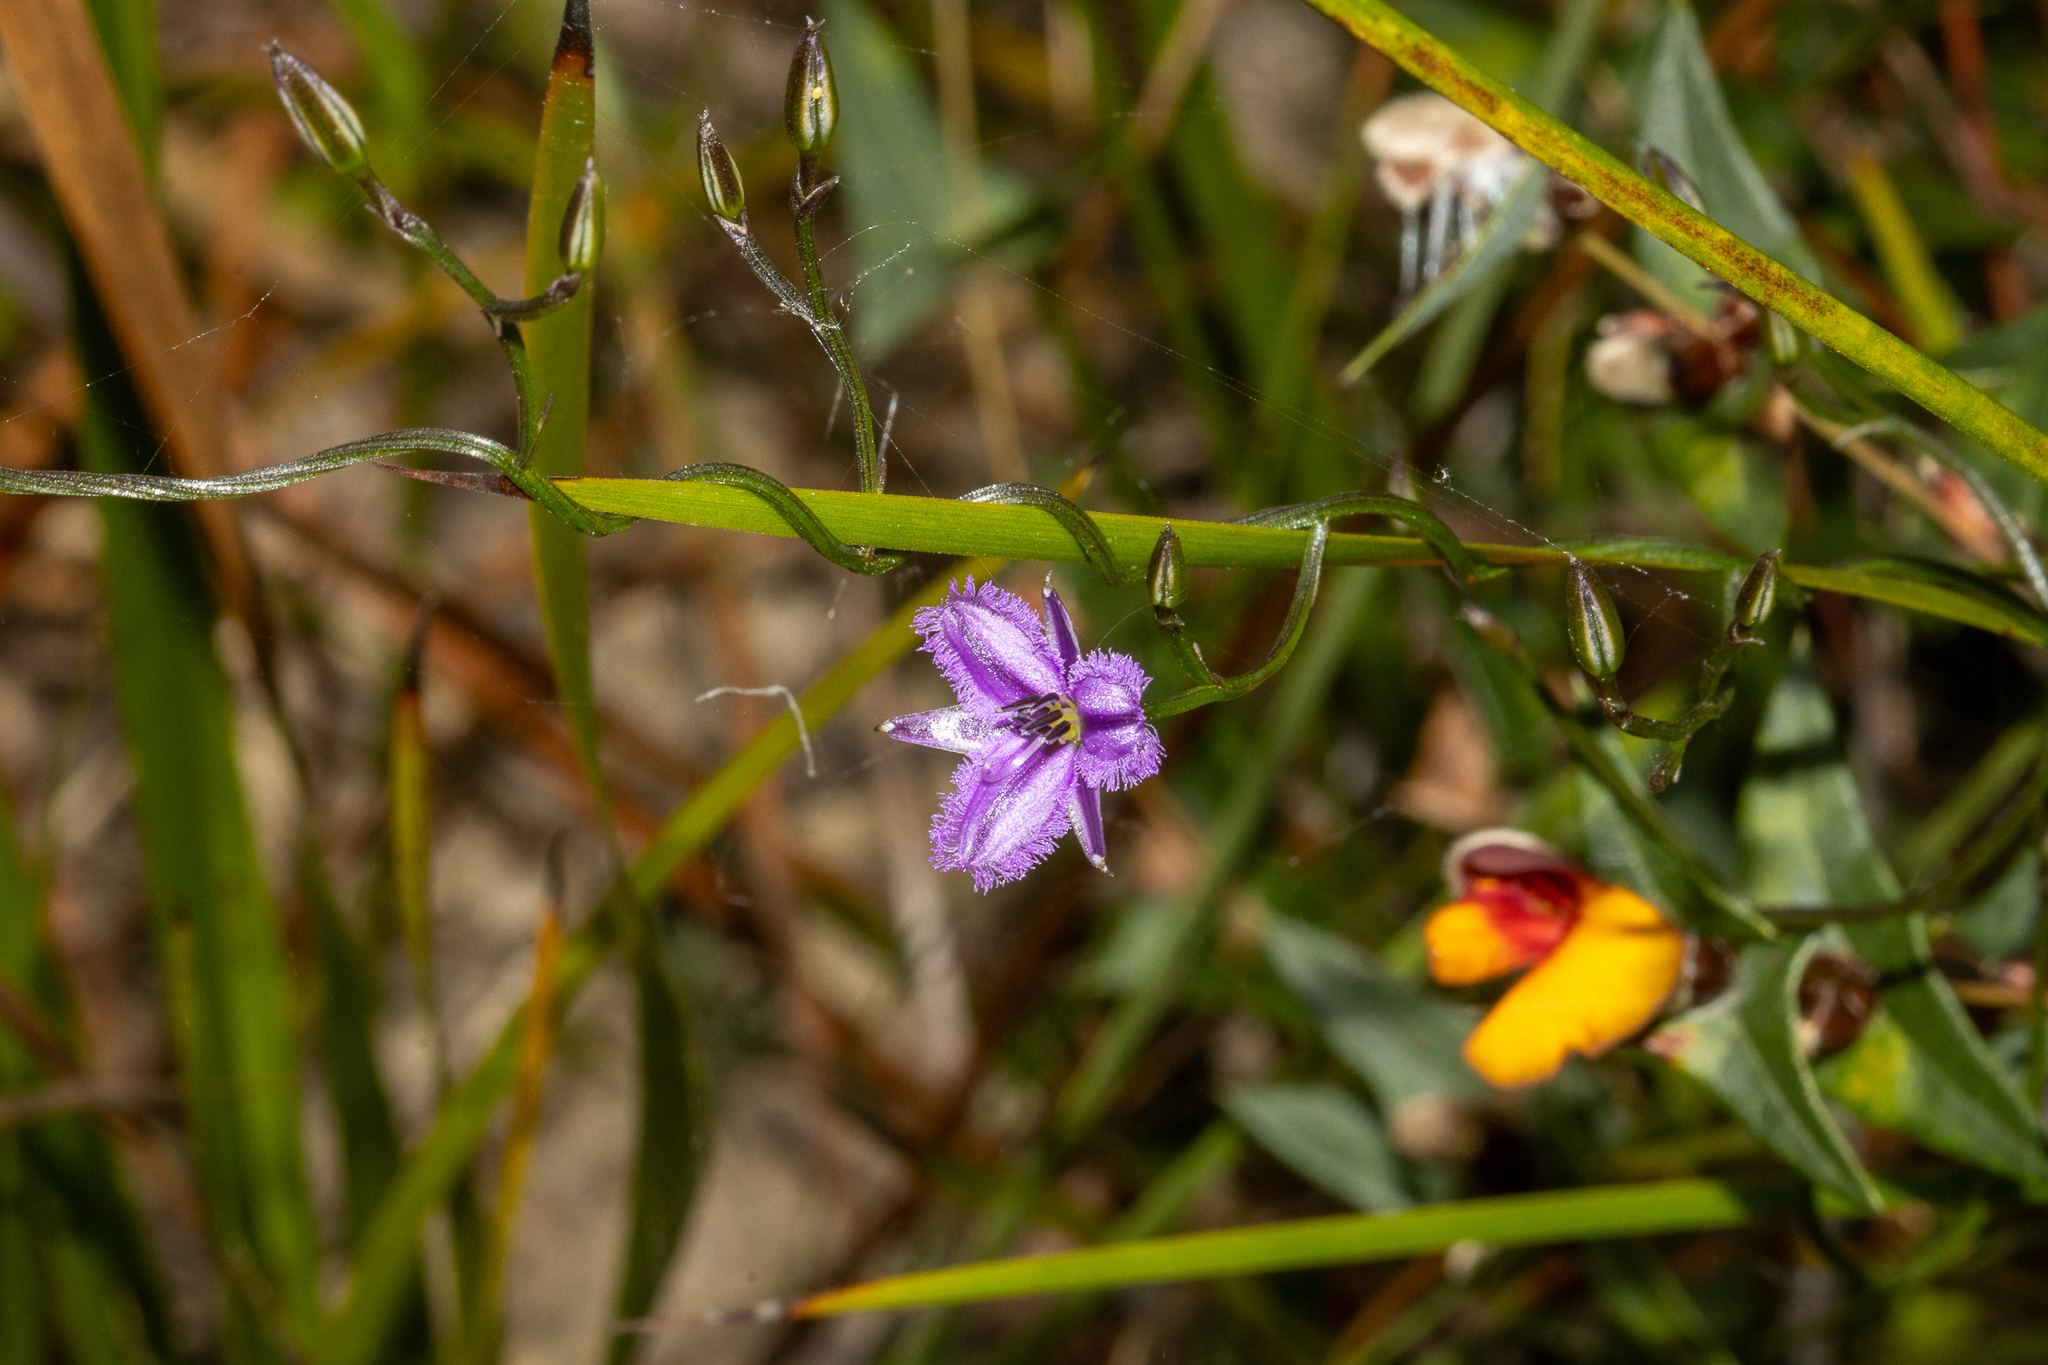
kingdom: Plantae
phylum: Tracheophyta
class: Liliopsida
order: Asparagales
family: Asparagaceae
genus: Thysanotus
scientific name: Thysanotus patersonii
